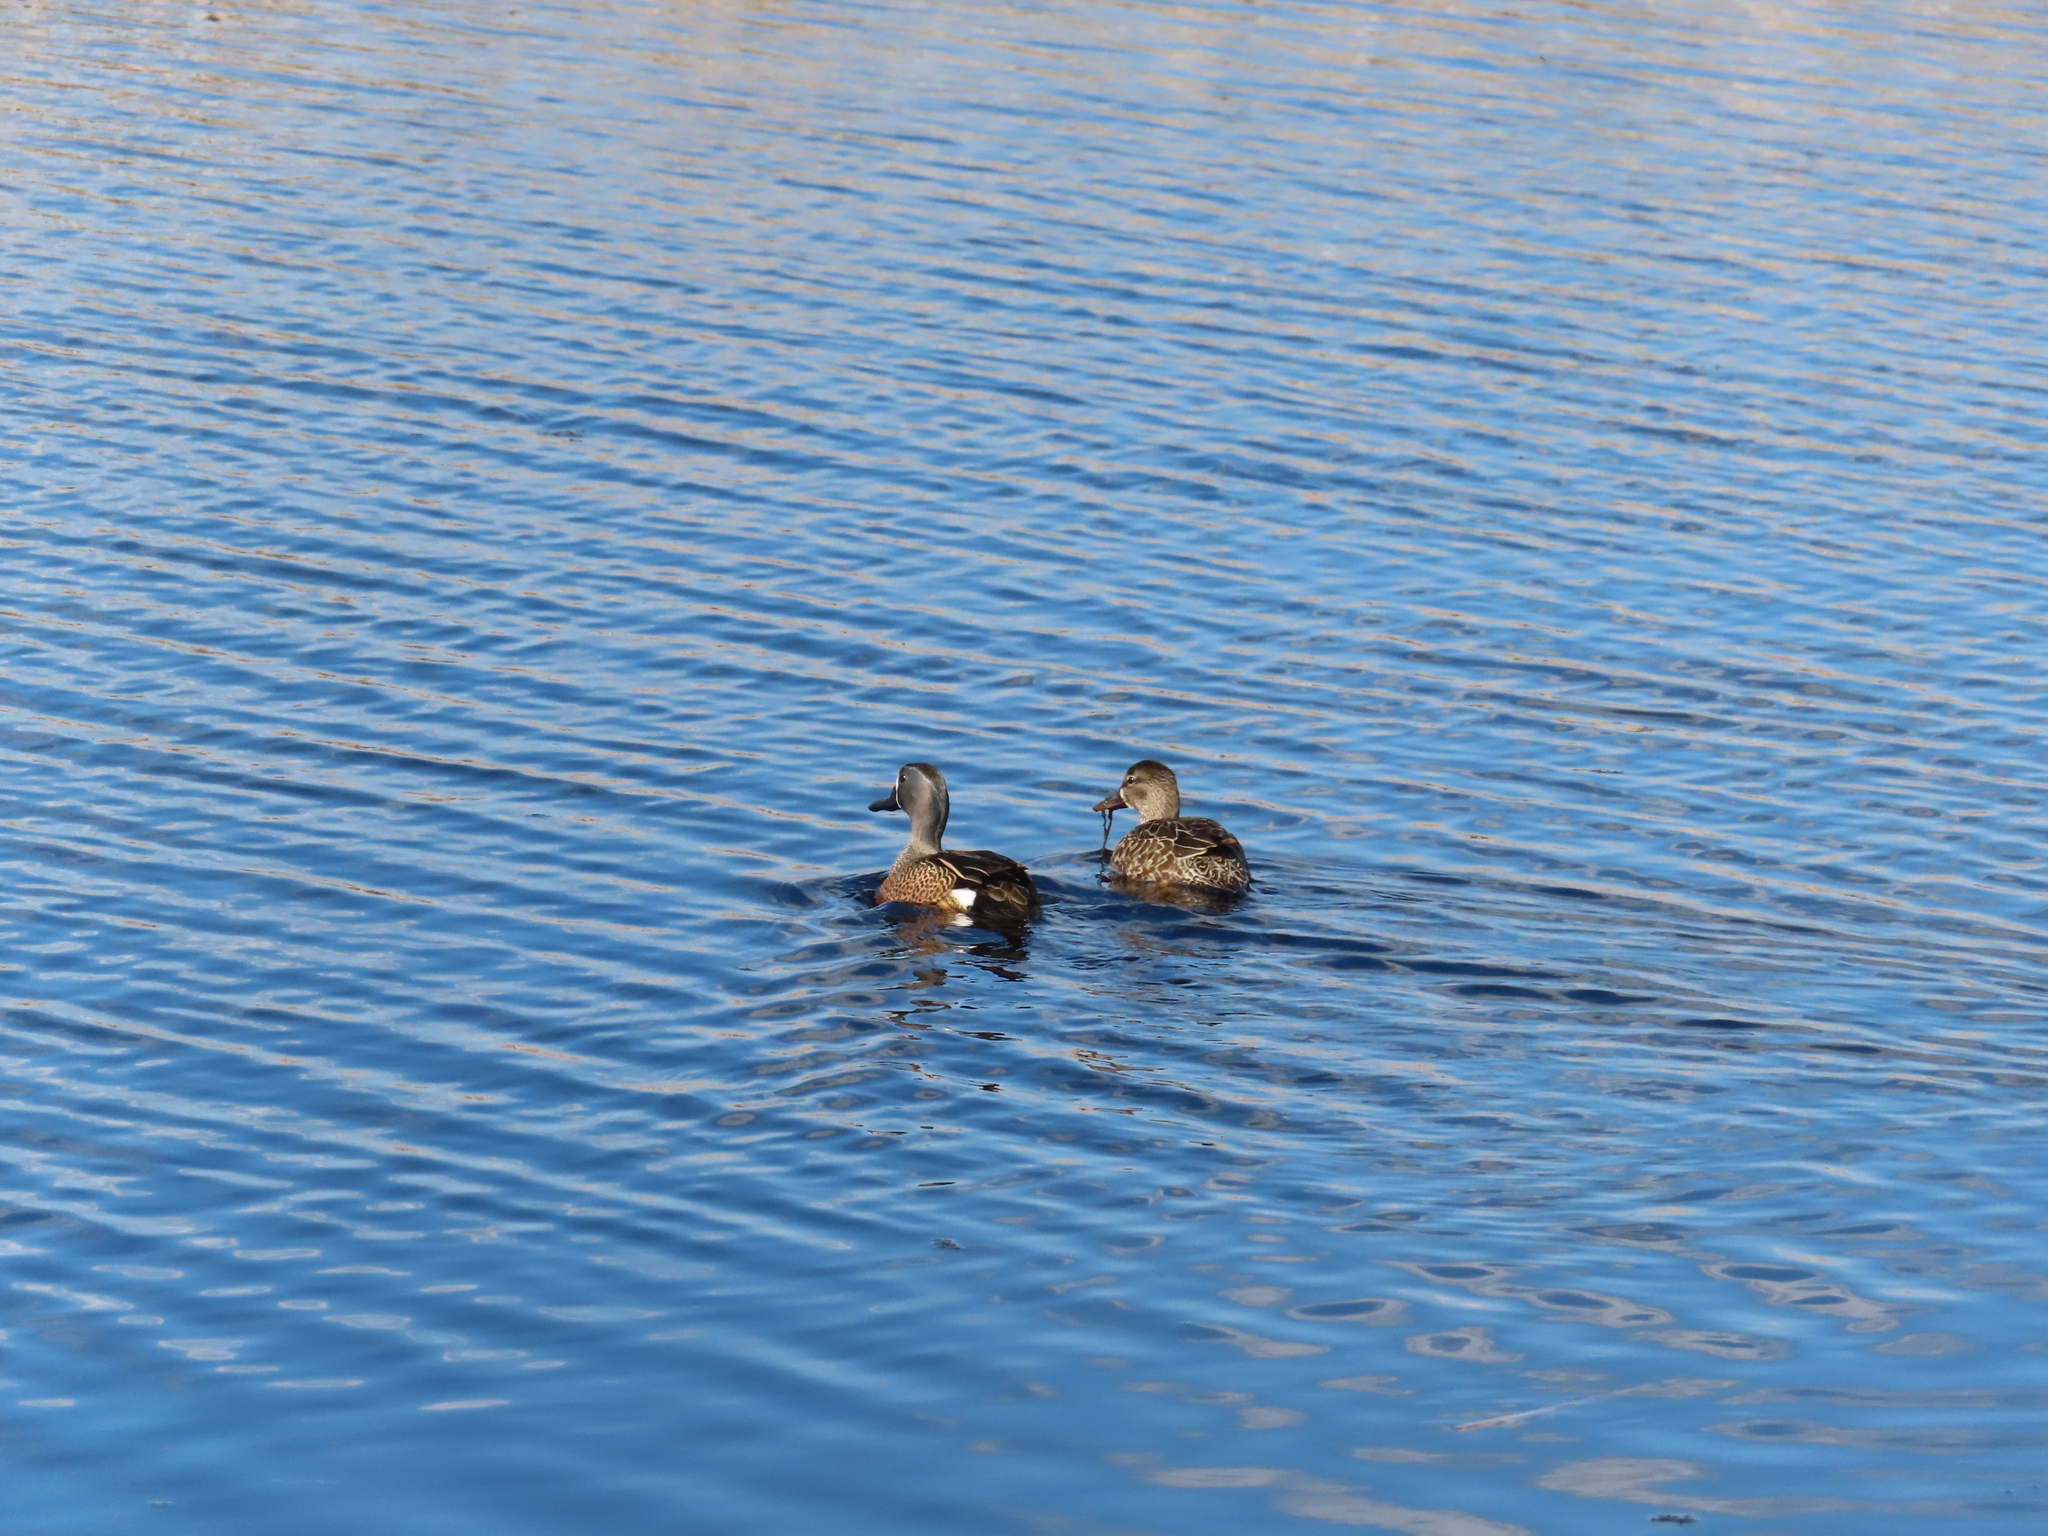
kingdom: Animalia
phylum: Chordata
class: Aves
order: Anseriformes
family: Anatidae
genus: Spatula
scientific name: Spatula discors
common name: Blue-winged teal
